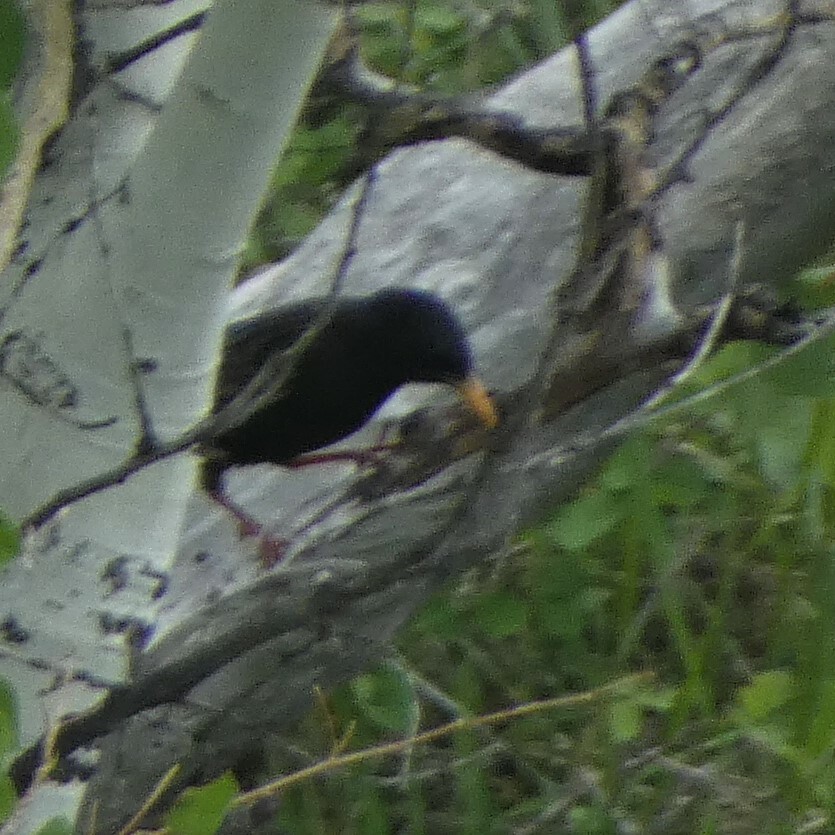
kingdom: Animalia
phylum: Chordata
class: Aves
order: Passeriformes
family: Sturnidae
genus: Sturnus
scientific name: Sturnus vulgaris
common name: Common starling
